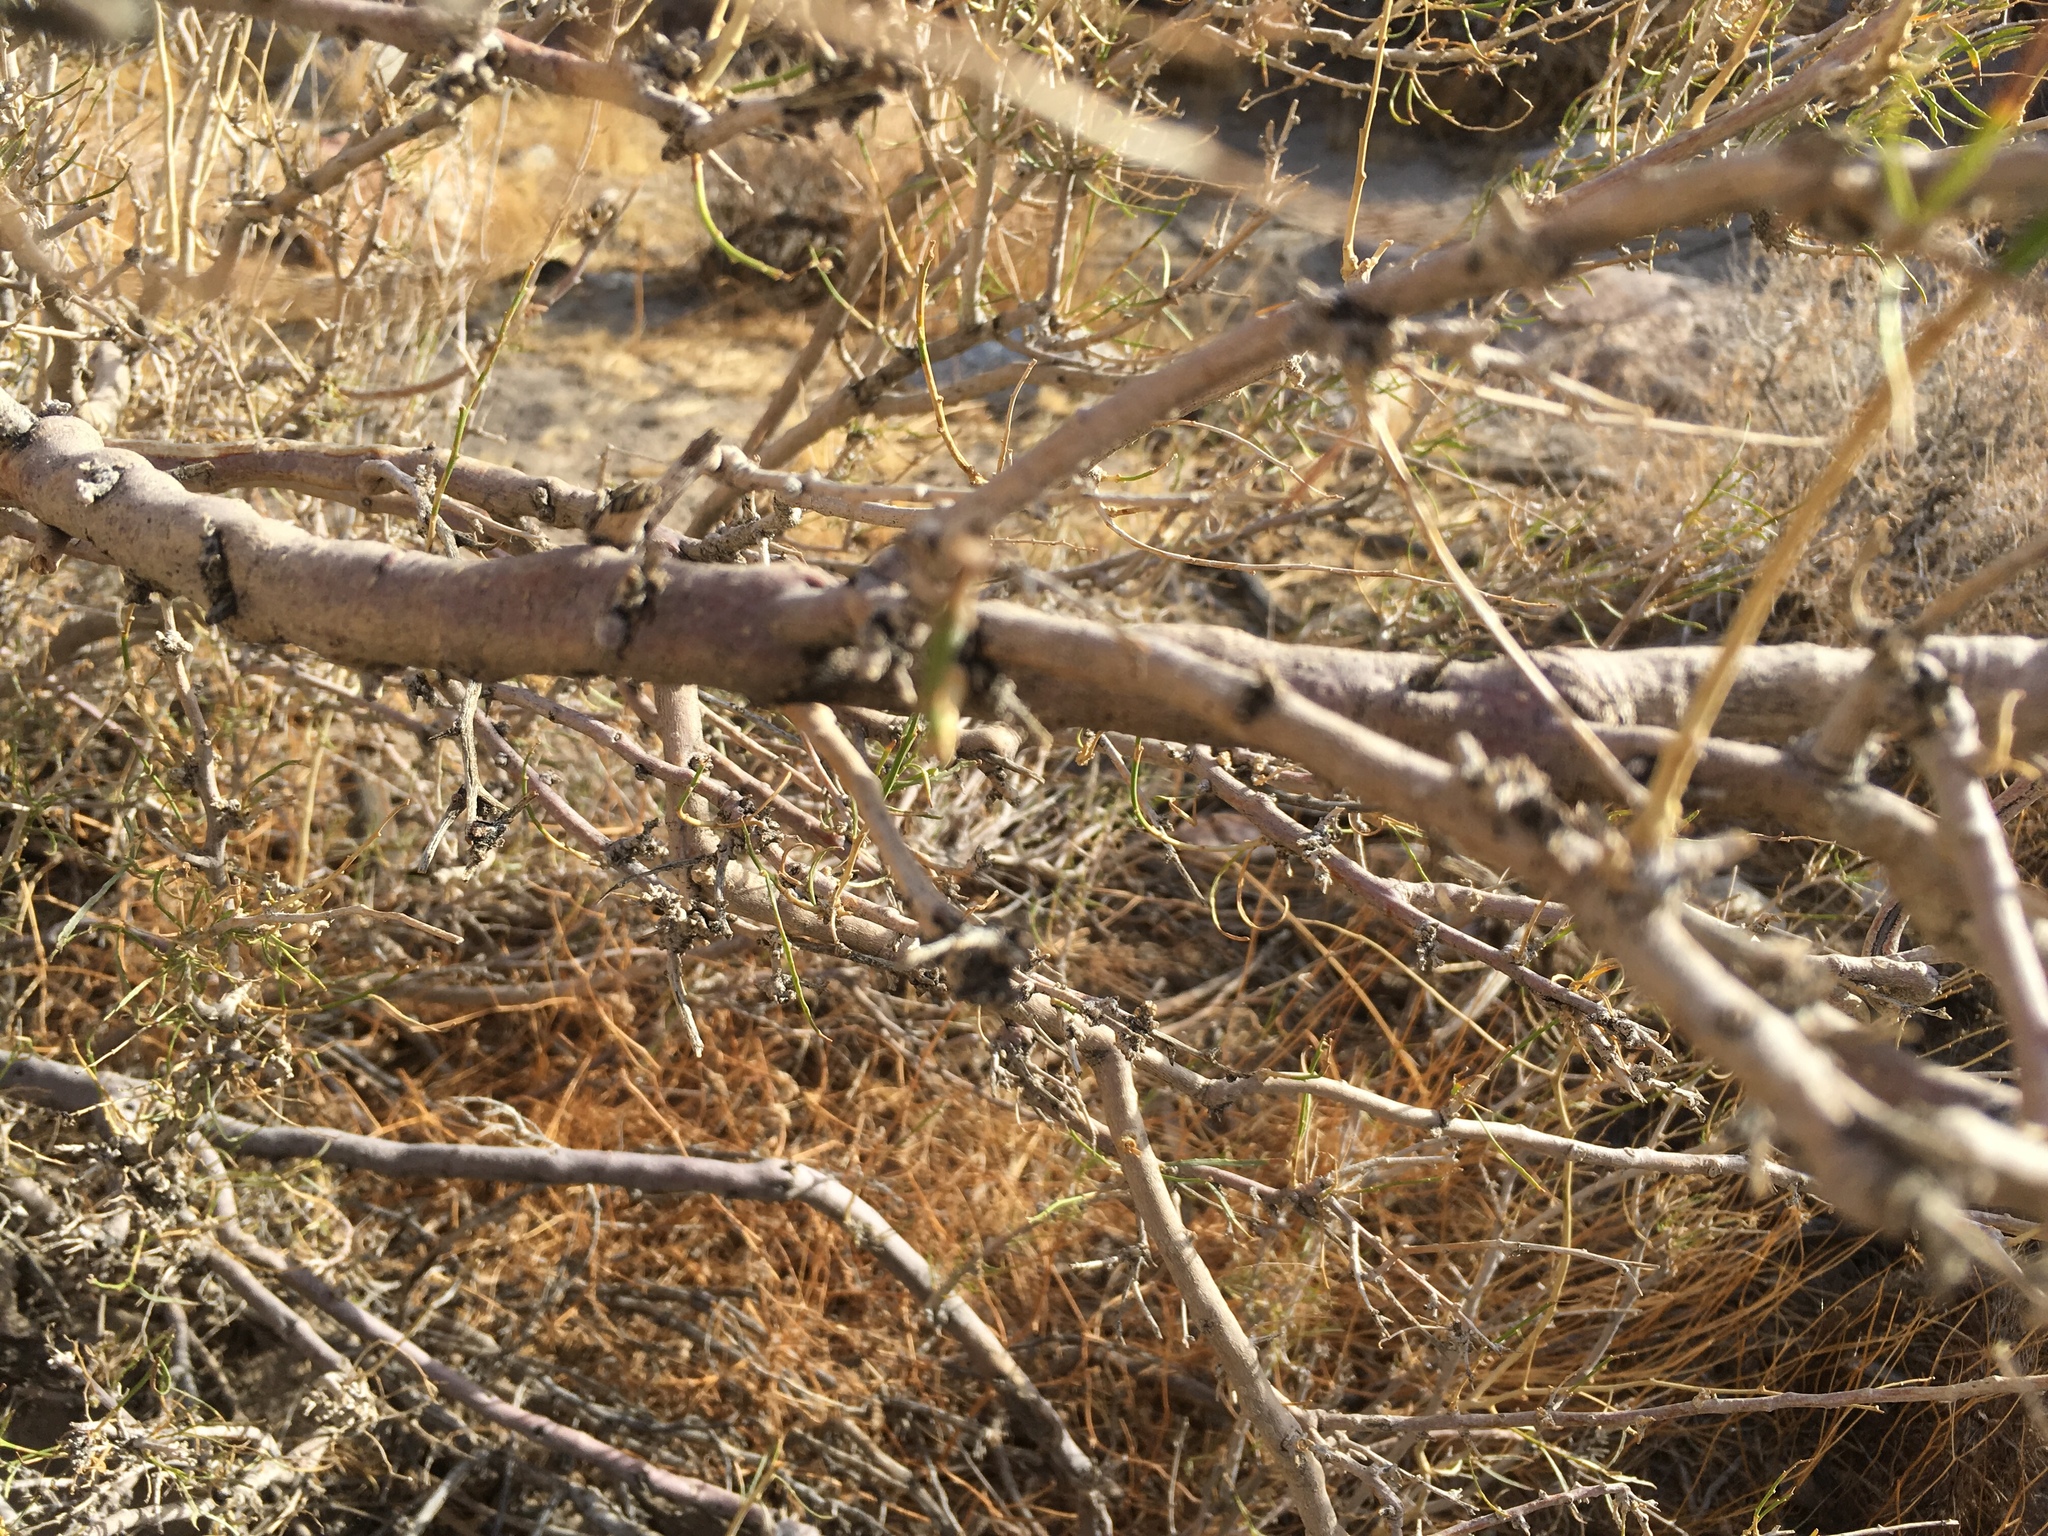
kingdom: Plantae
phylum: Tracheophyta
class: Magnoliopsida
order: Fabales
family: Fabaceae
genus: Psorothamnus
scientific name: Psorothamnus schottii
